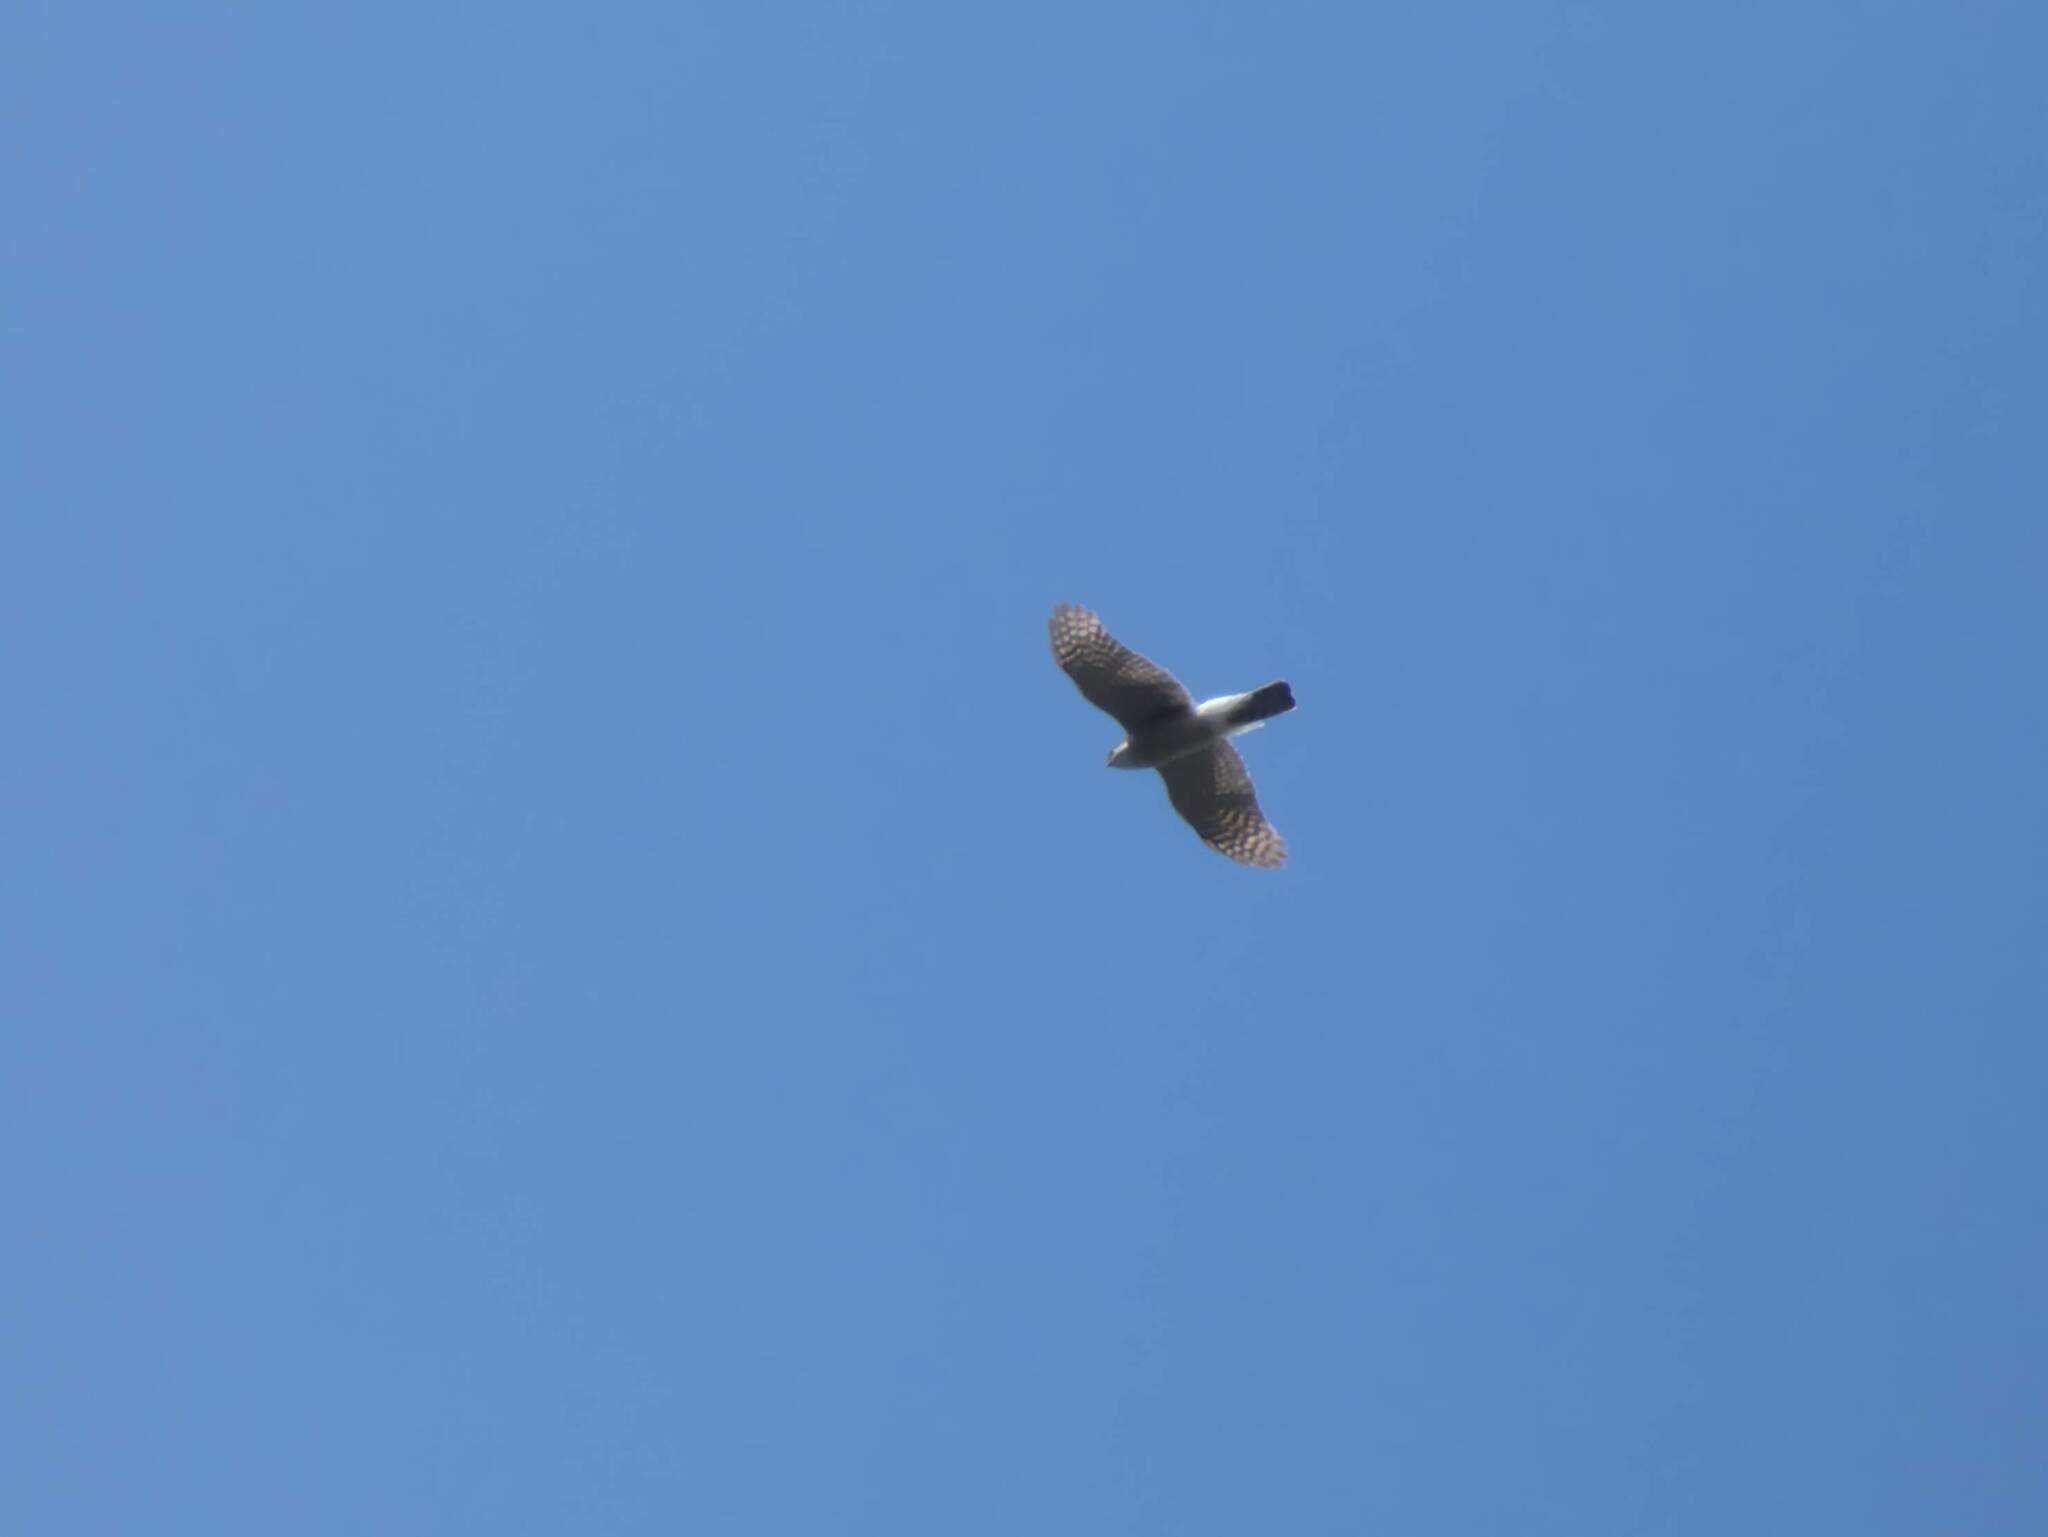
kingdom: Animalia
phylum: Chordata
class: Aves
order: Accipitriformes
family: Accipitridae
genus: Accipiter
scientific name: Accipiter nisus
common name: Eurasian sparrowhawk
